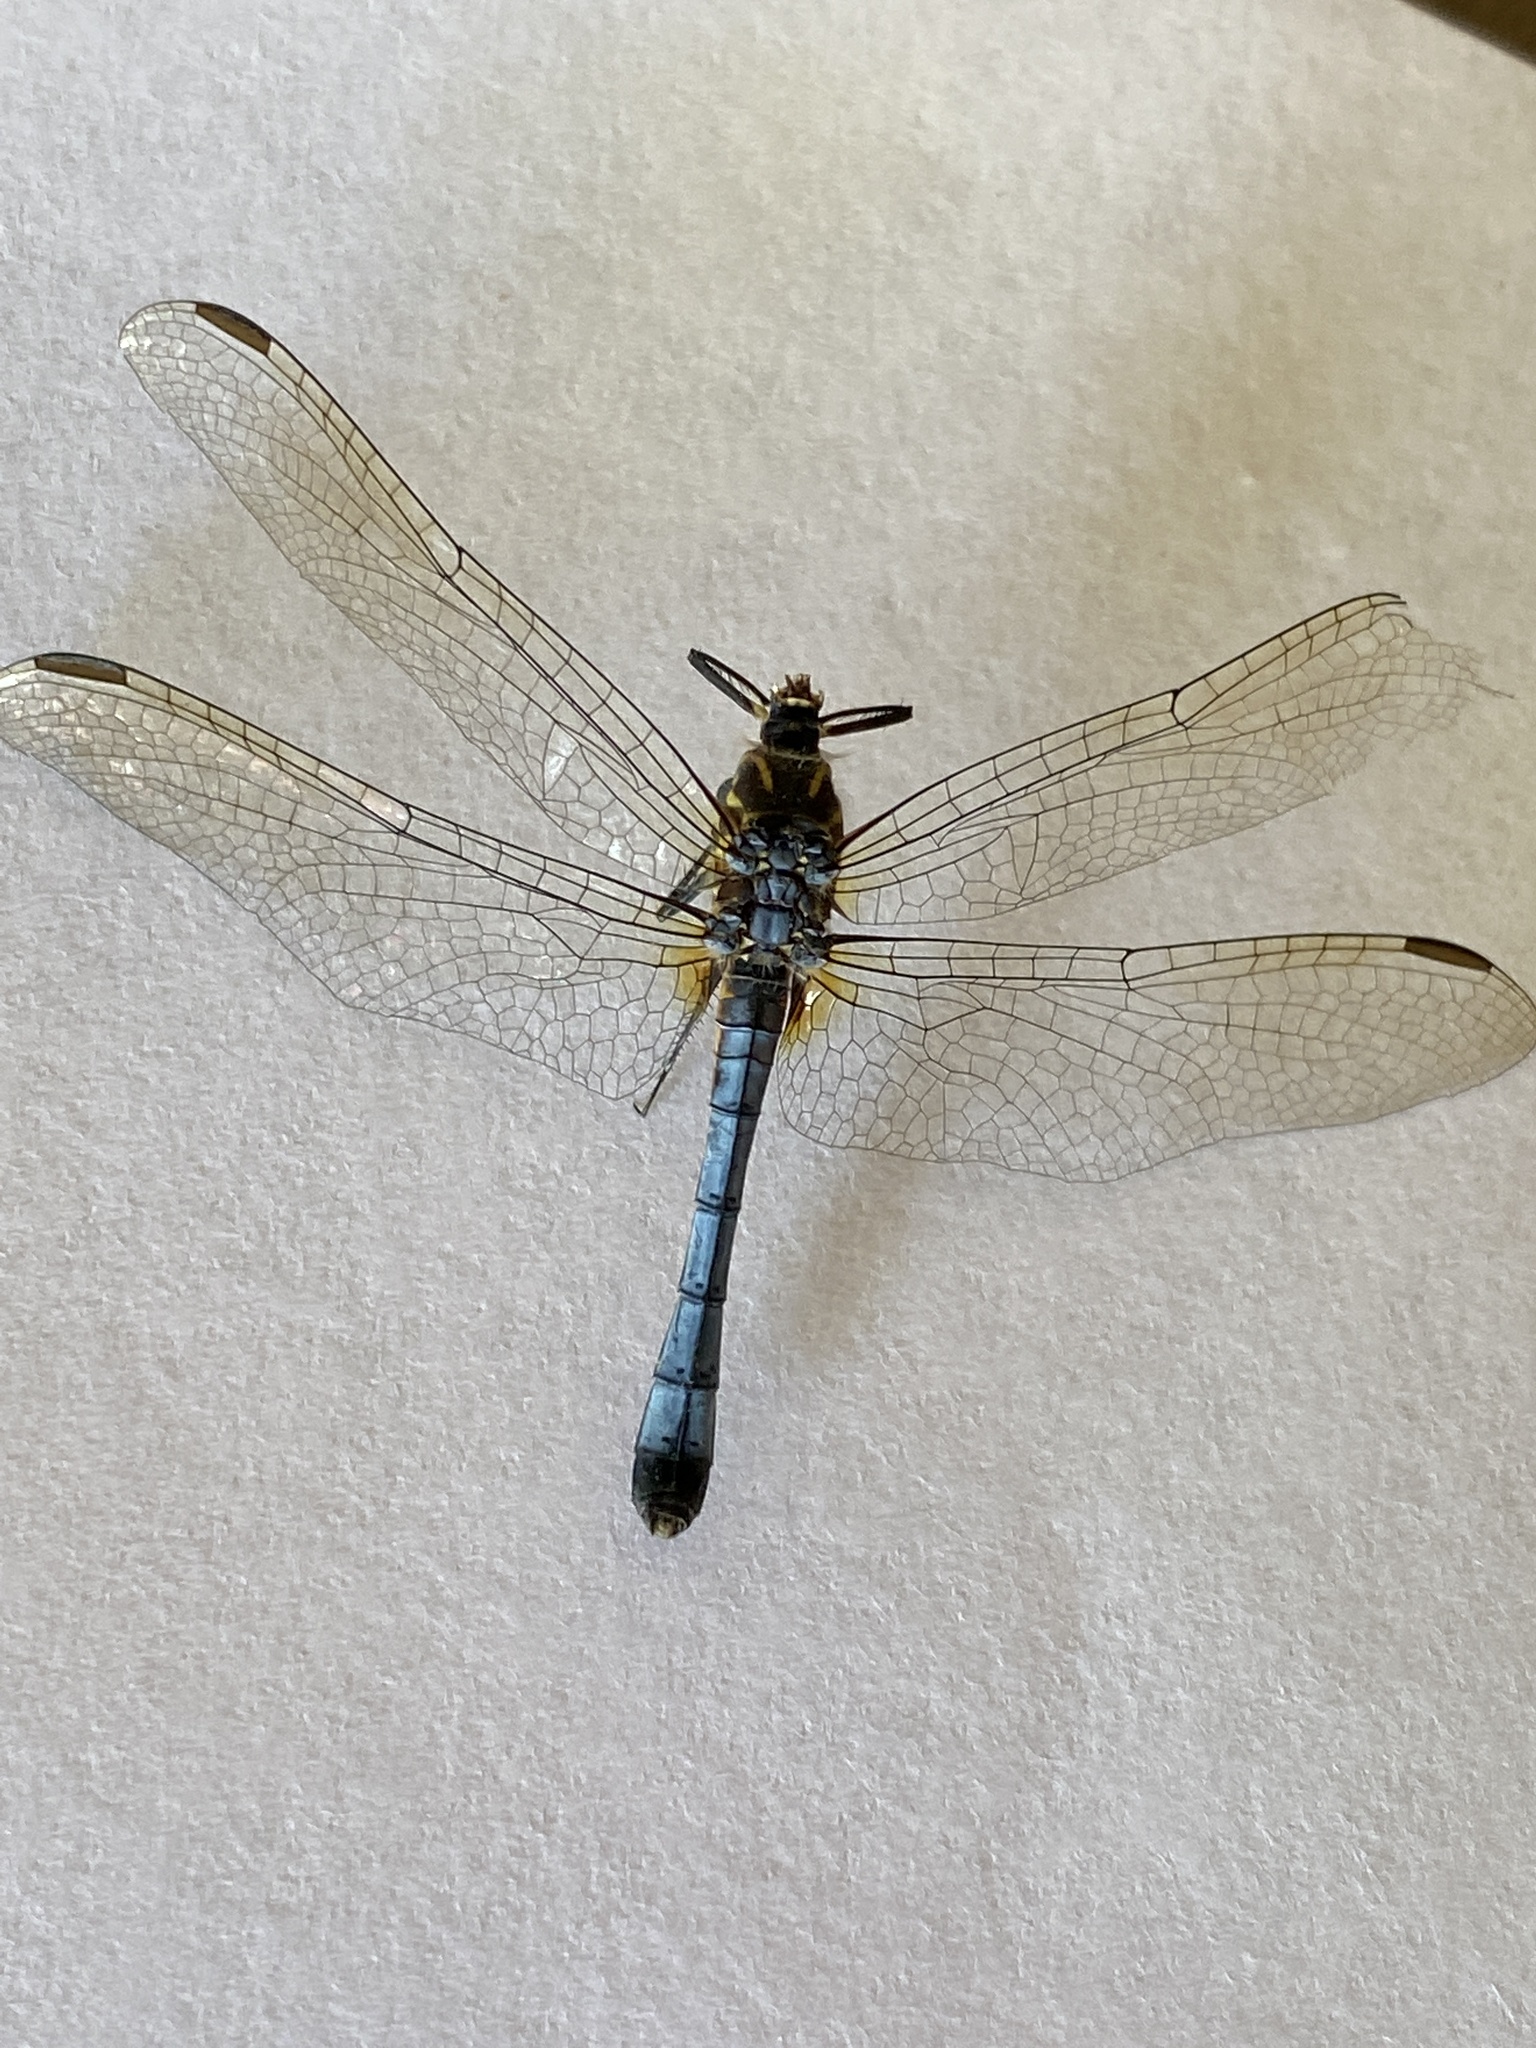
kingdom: Animalia
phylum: Arthropoda
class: Insecta
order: Odonata
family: Libellulidae
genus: Pachydiplax
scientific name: Pachydiplax longipennis
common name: Blue dasher
